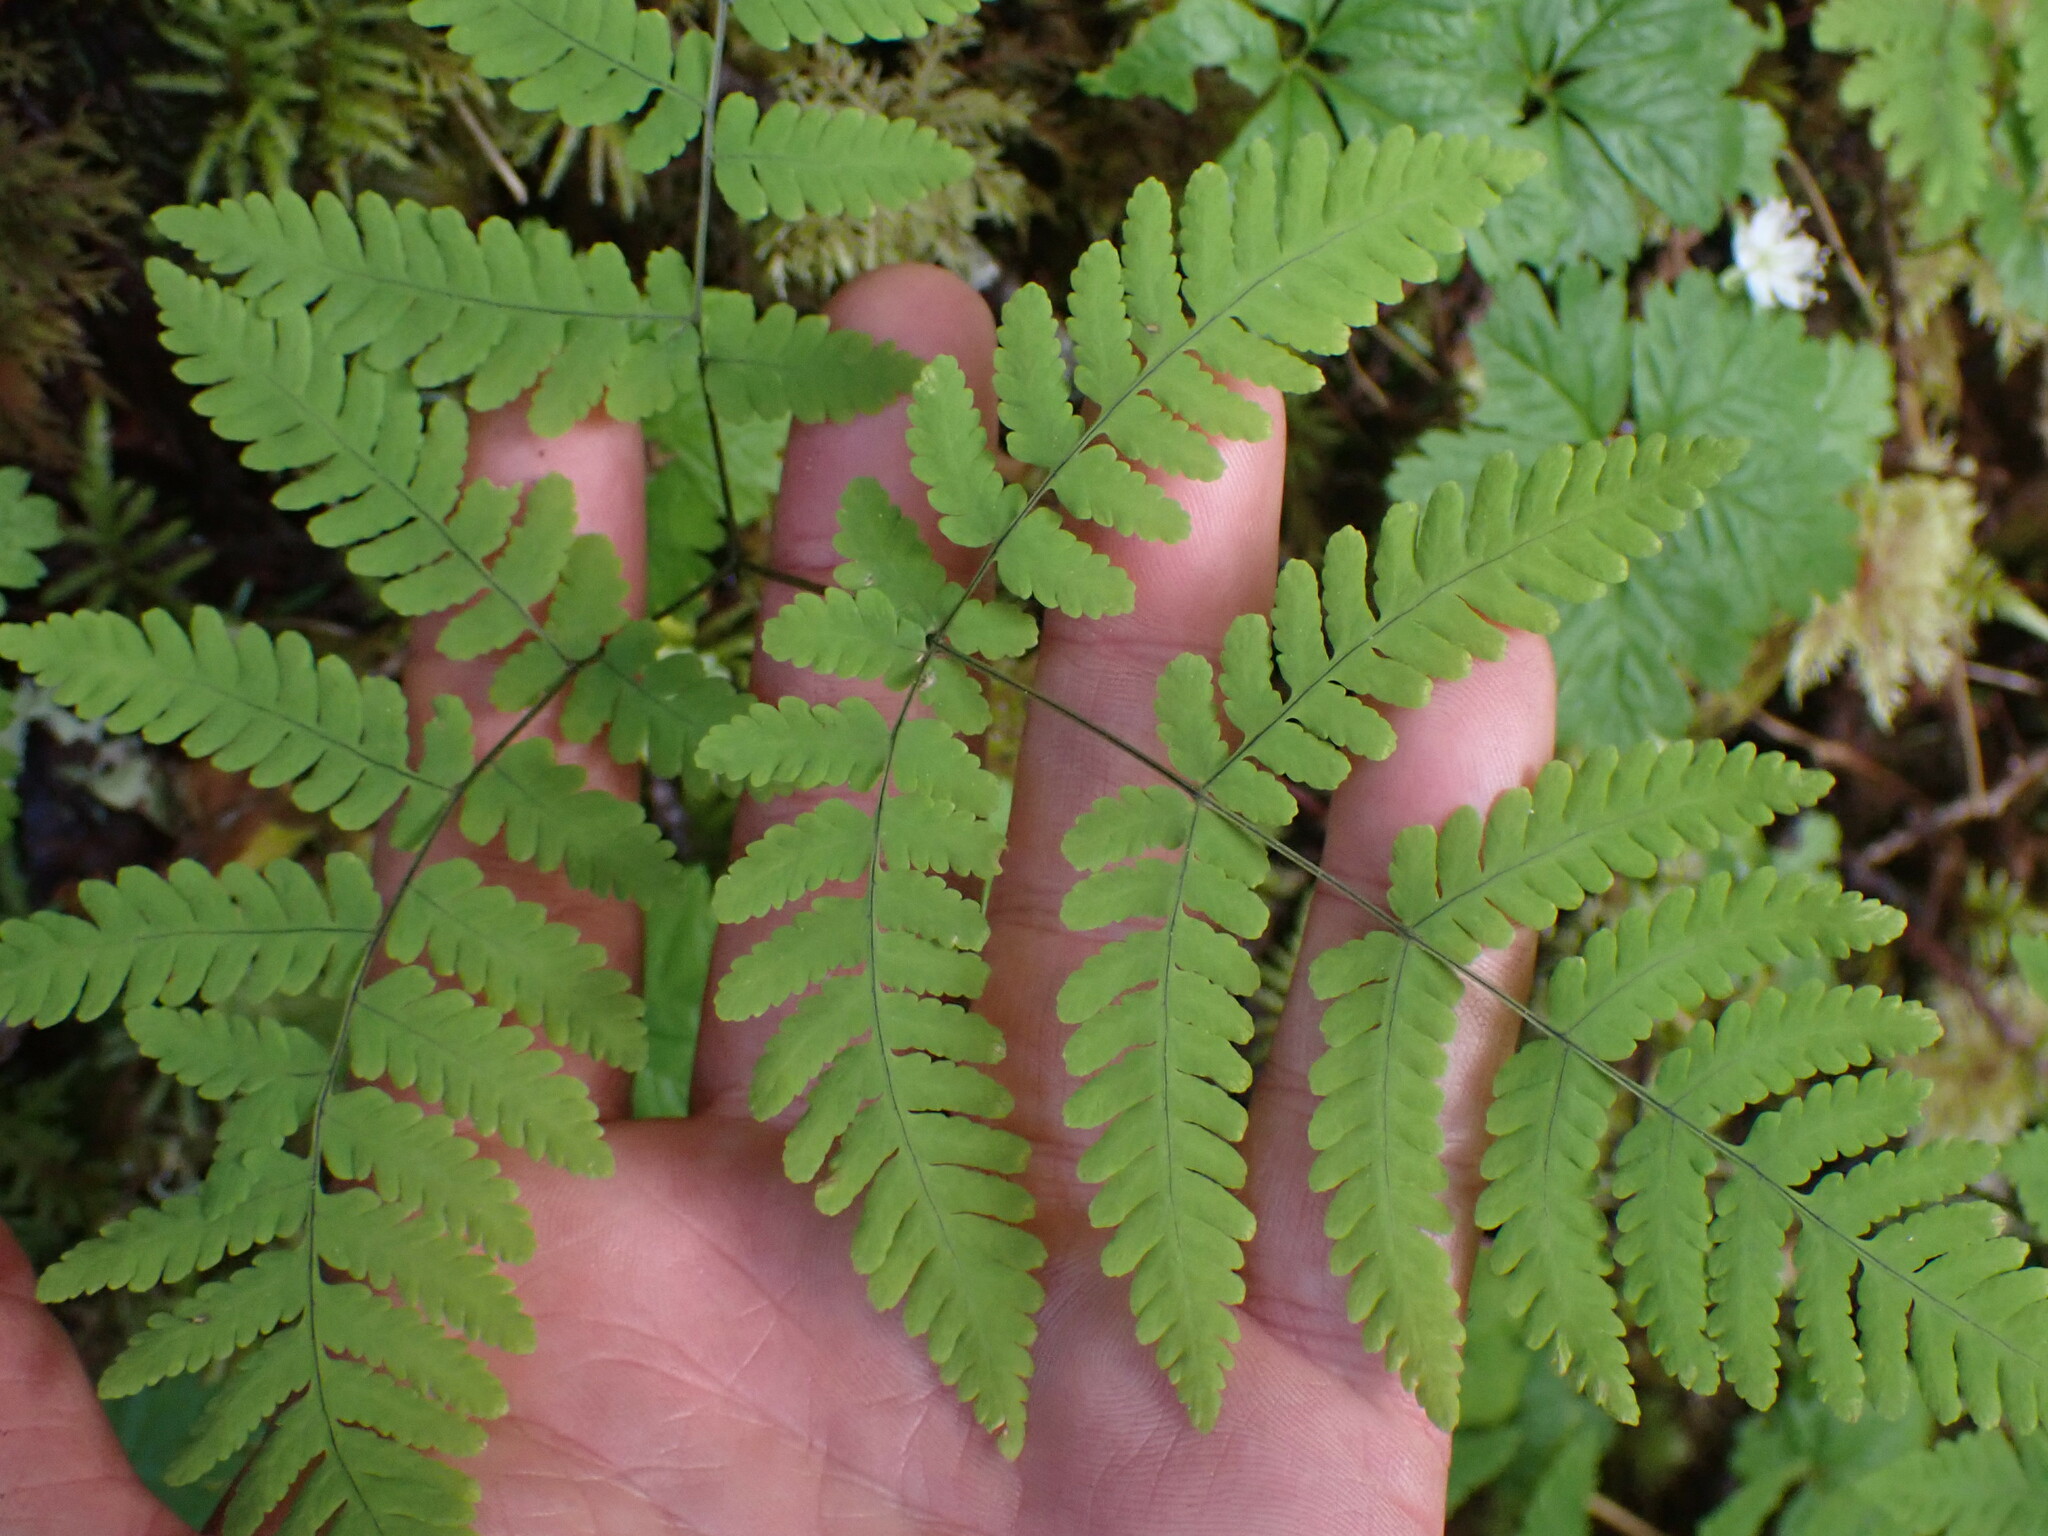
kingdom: Plantae
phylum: Tracheophyta
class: Polypodiopsida
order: Polypodiales
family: Cystopteridaceae
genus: Gymnocarpium
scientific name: Gymnocarpium disjunctum
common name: Western oak fern
